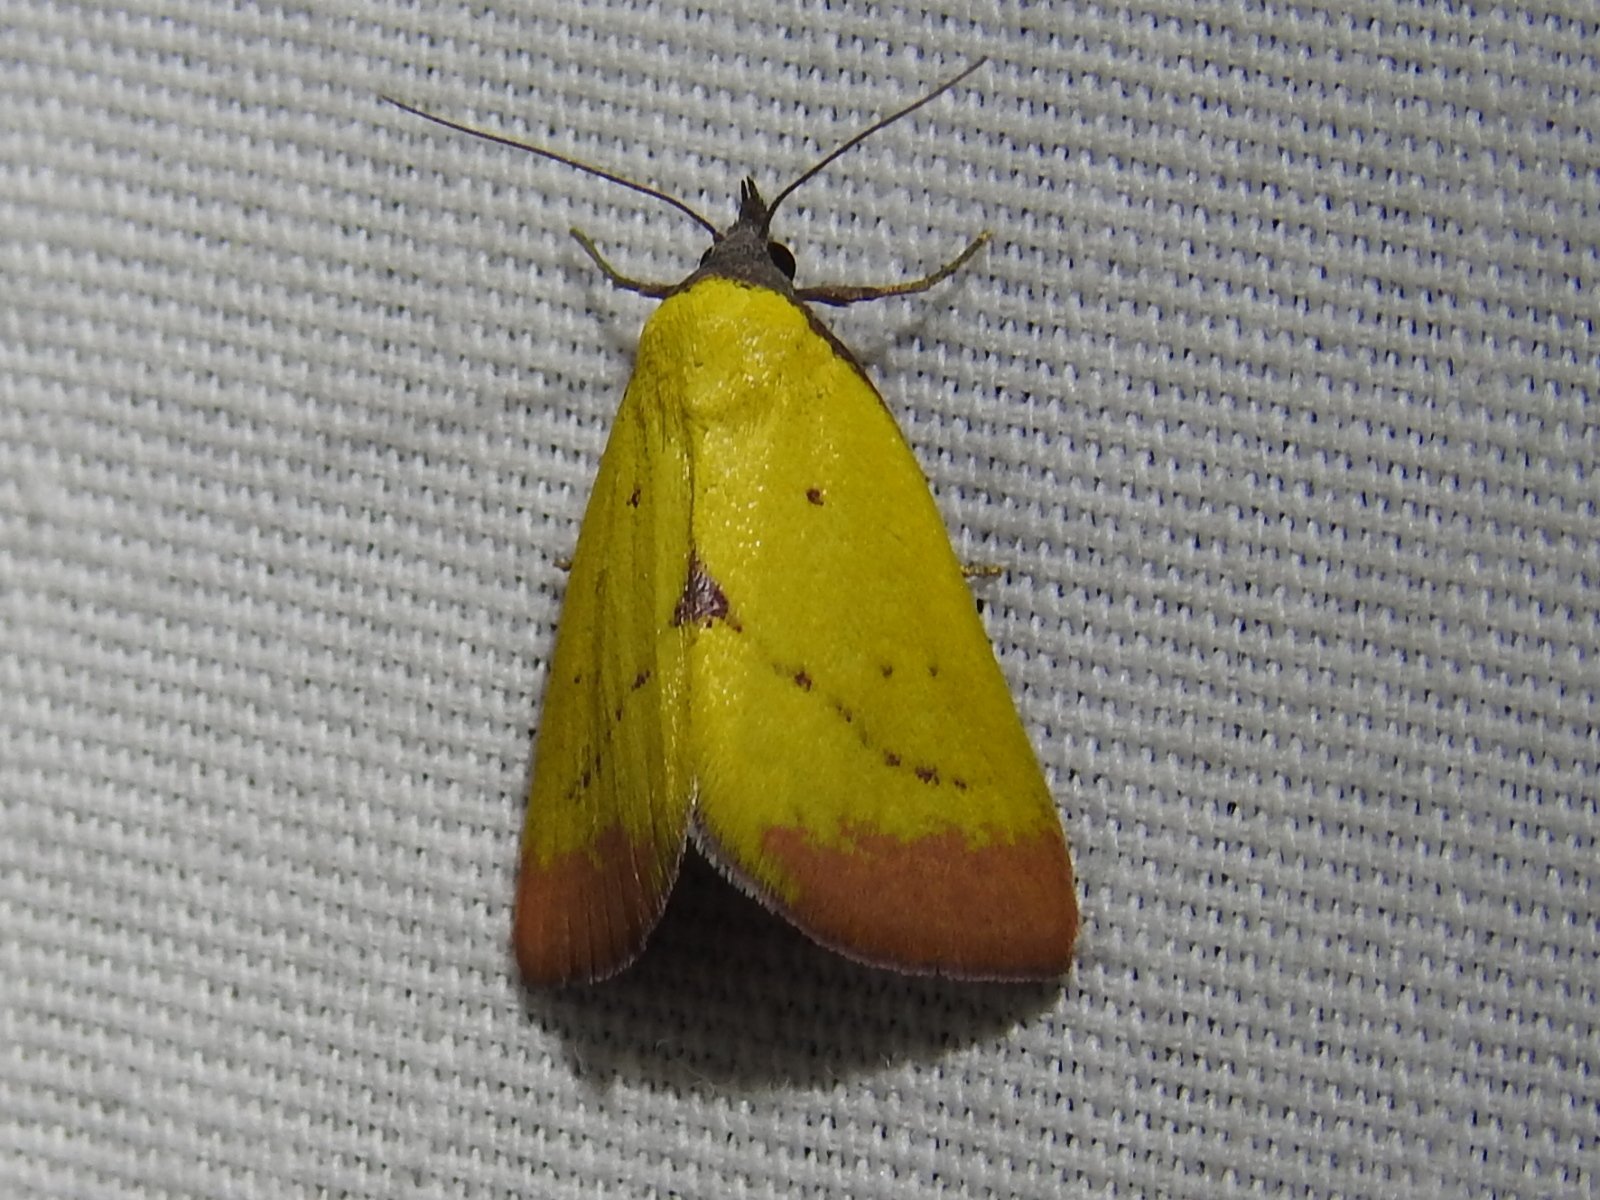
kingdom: Animalia
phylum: Arthropoda
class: Insecta
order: Lepidoptera
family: Erebidae
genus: Phytometra
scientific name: Phytometra orgiae
